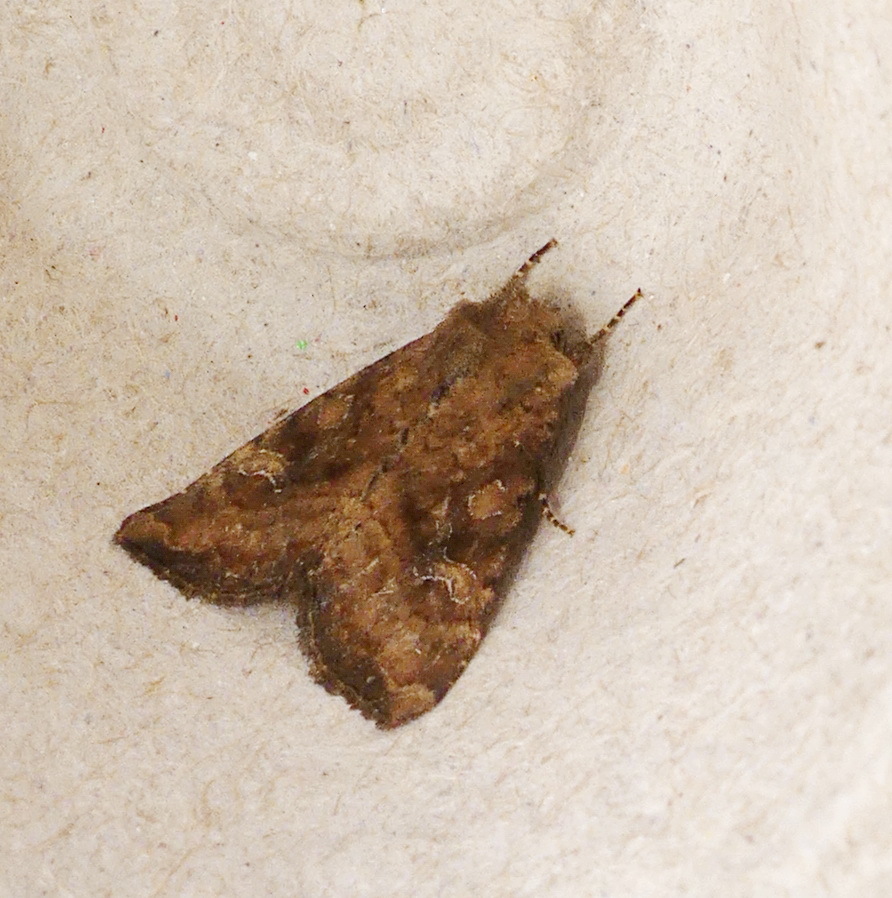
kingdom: Animalia
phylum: Arthropoda
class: Insecta
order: Lepidoptera
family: Noctuidae
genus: Loscopia
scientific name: Loscopia velata
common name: Veiled ear moth
